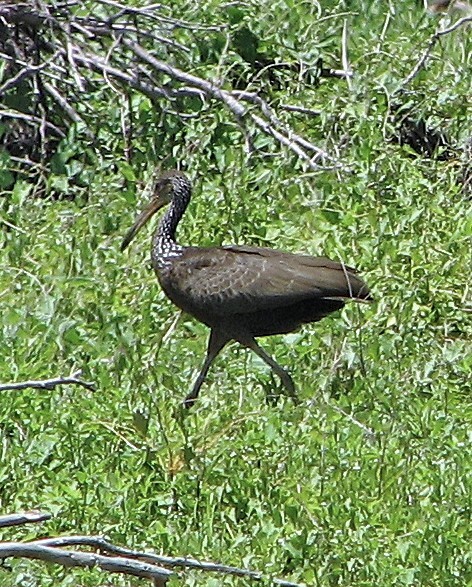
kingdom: Animalia
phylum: Chordata
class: Aves
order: Gruiformes
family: Aramidae
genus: Aramus
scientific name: Aramus guarauna
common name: Limpkin
